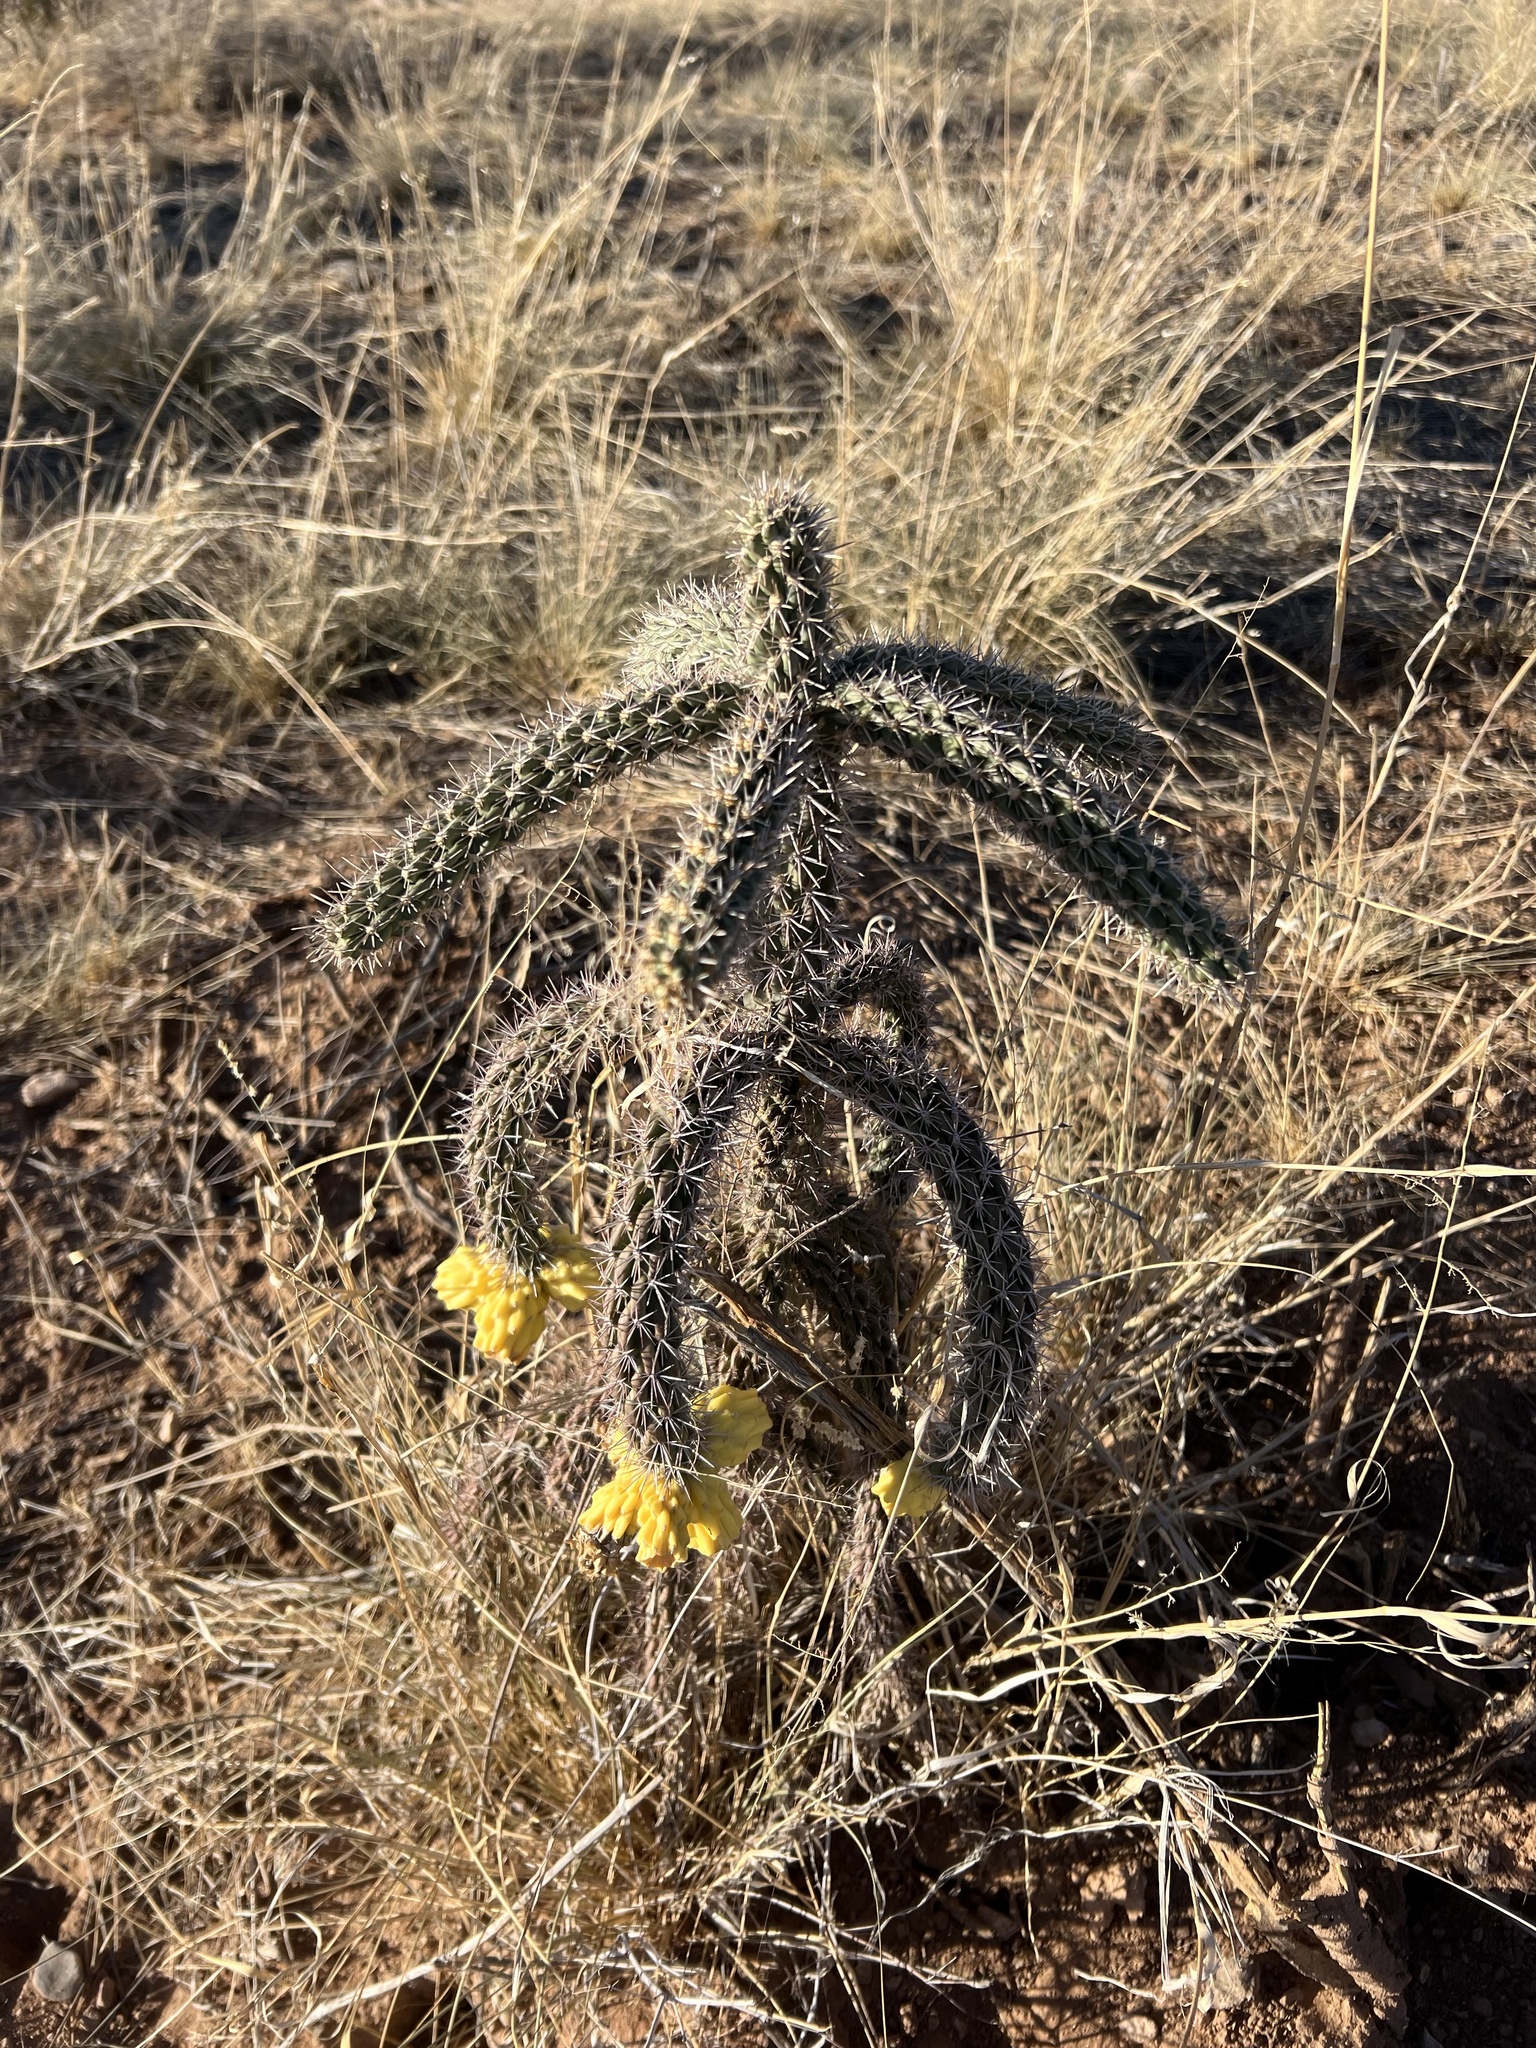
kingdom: Plantae
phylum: Tracheophyta
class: Magnoliopsida
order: Caryophyllales
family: Cactaceae
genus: Cylindropuntia
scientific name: Cylindropuntia imbricata
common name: Candelabrum cactus
